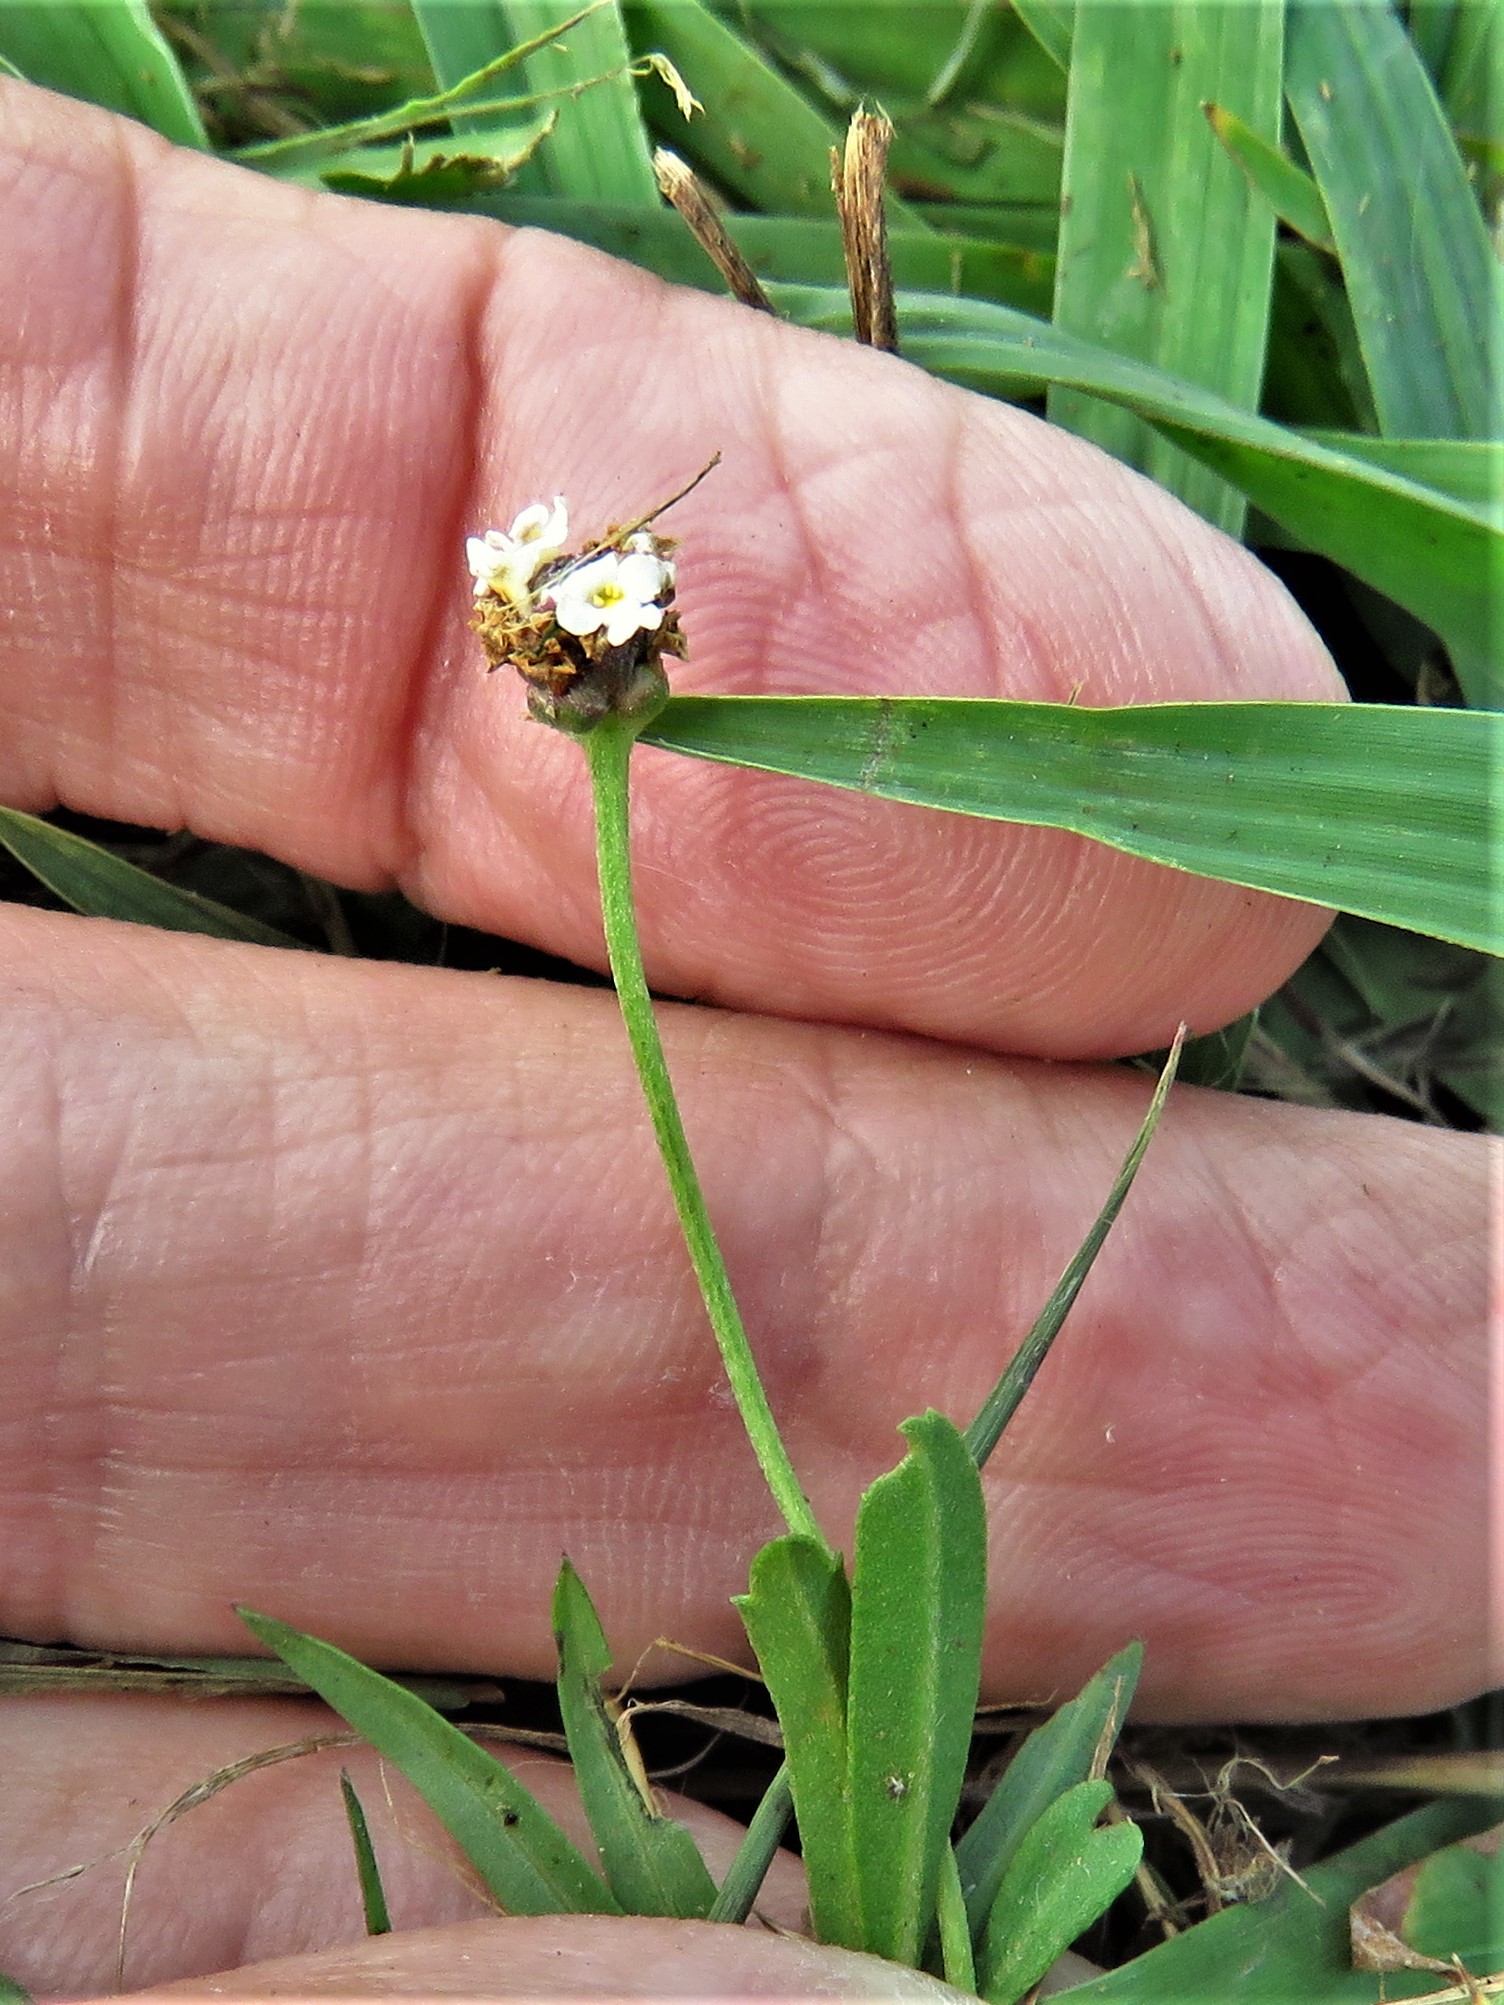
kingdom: Plantae
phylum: Tracheophyta
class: Magnoliopsida
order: Lamiales
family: Verbenaceae
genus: Phyla
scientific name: Phyla nodiflora
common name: Frogfruit
